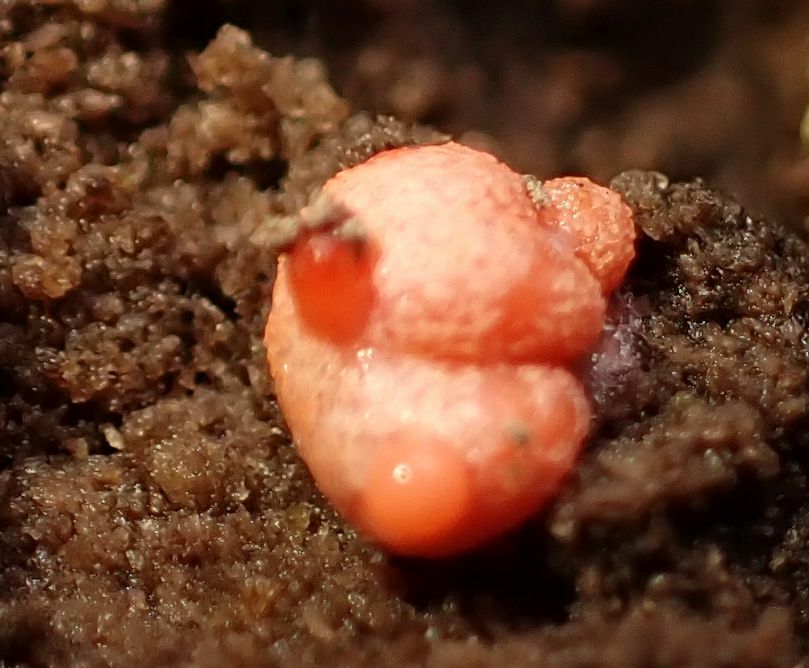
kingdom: Protozoa
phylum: Mycetozoa
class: Myxomycetes
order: Cribrariales
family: Tubiferaceae
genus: Lycogala
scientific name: Lycogala epidendrum
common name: Wolf's milk
